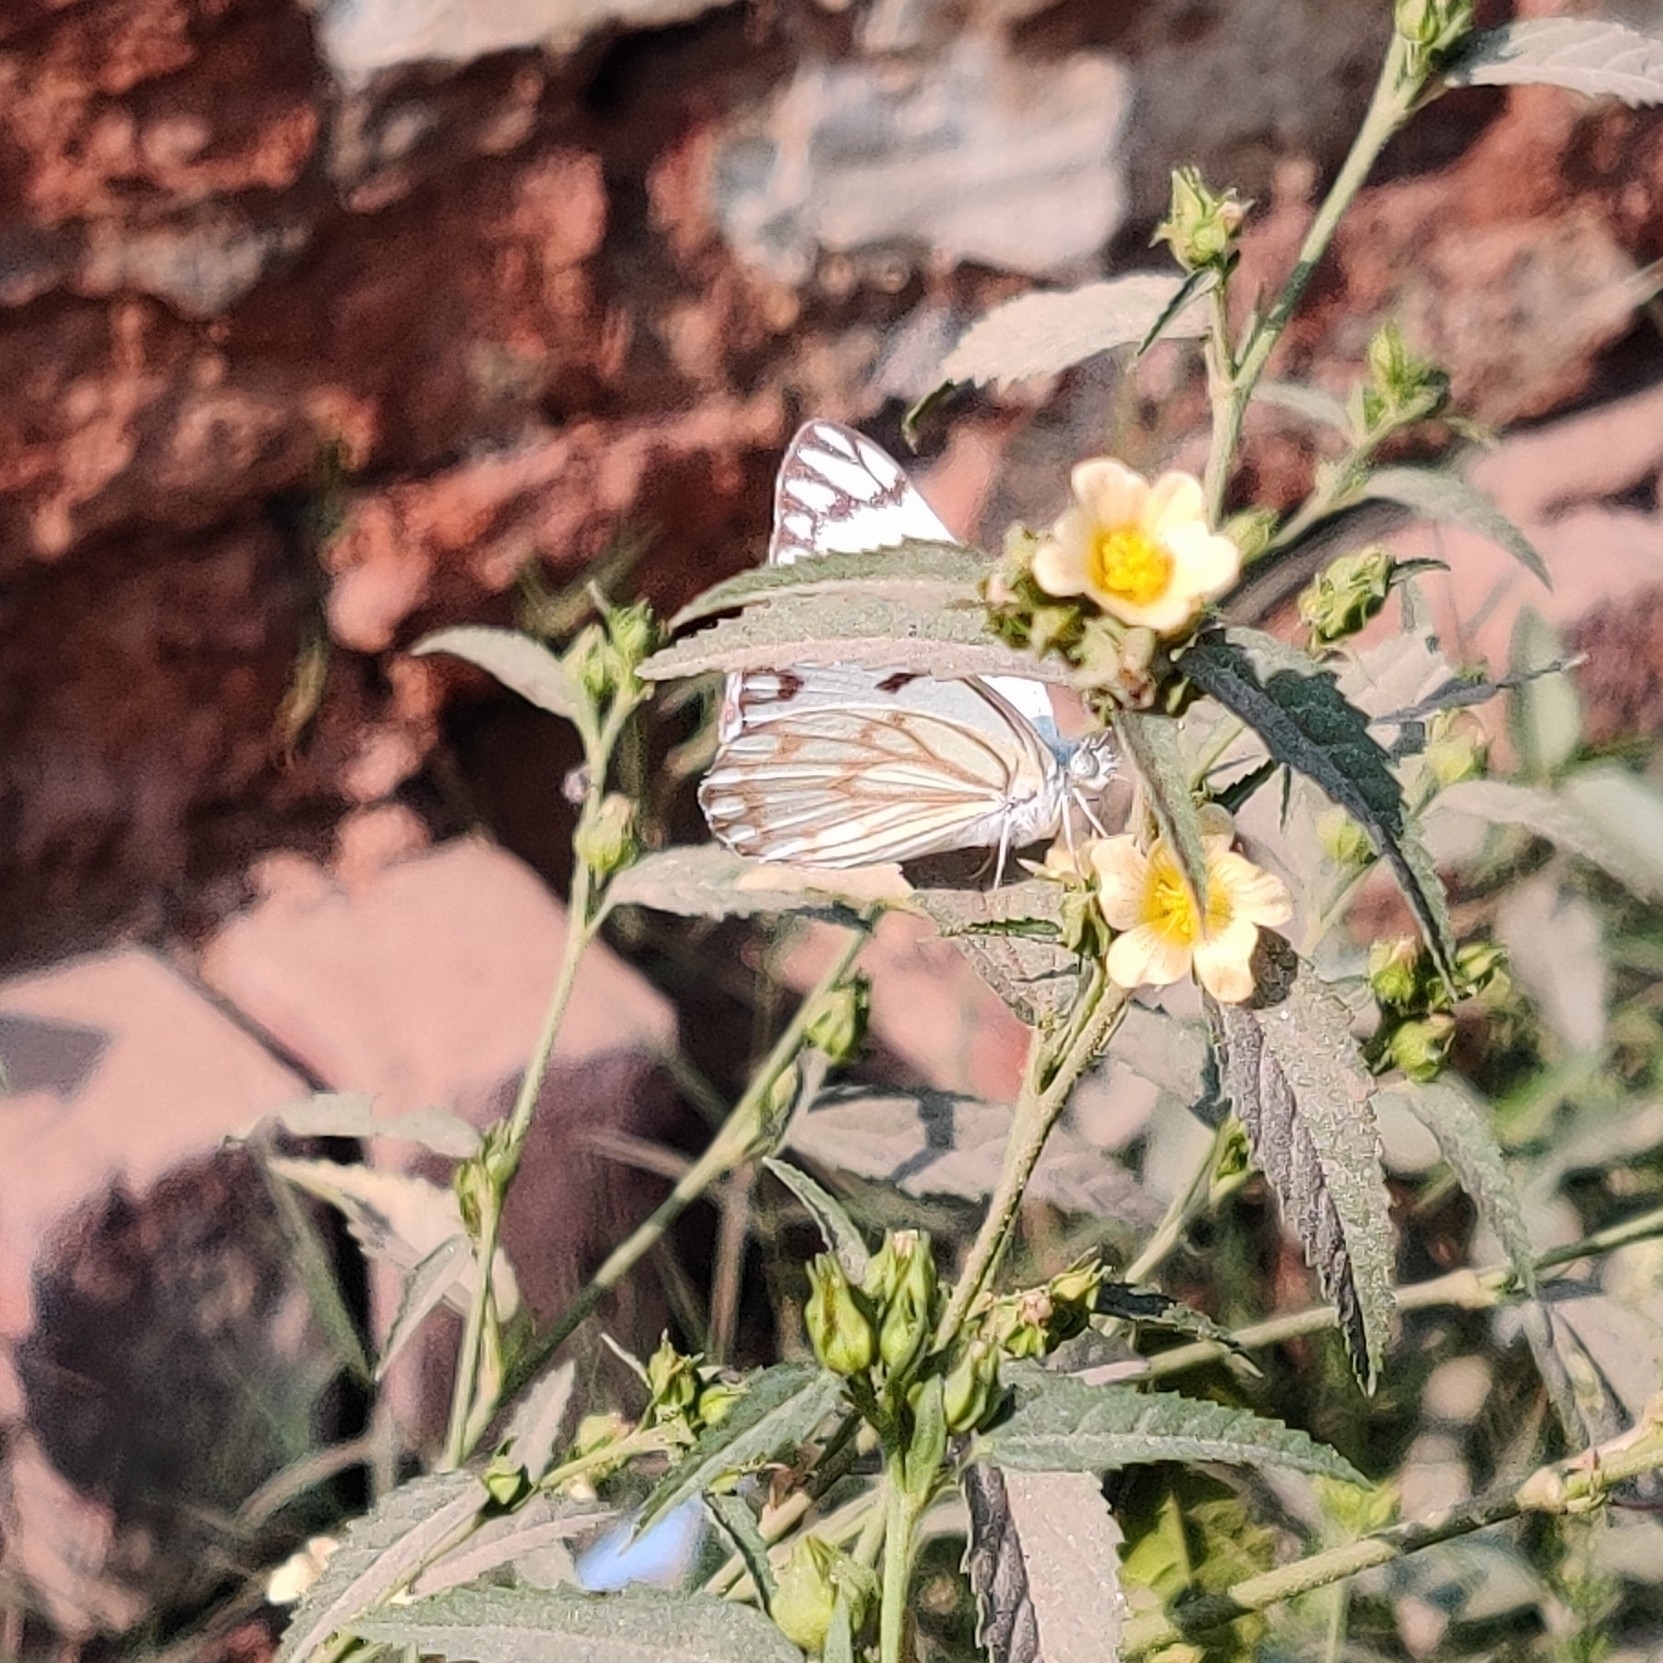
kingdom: Animalia
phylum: Arthropoda
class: Insecta
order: Lepidoptera
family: Pieridae
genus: Belenois
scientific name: Belenois aurota
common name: Brown-veined white
